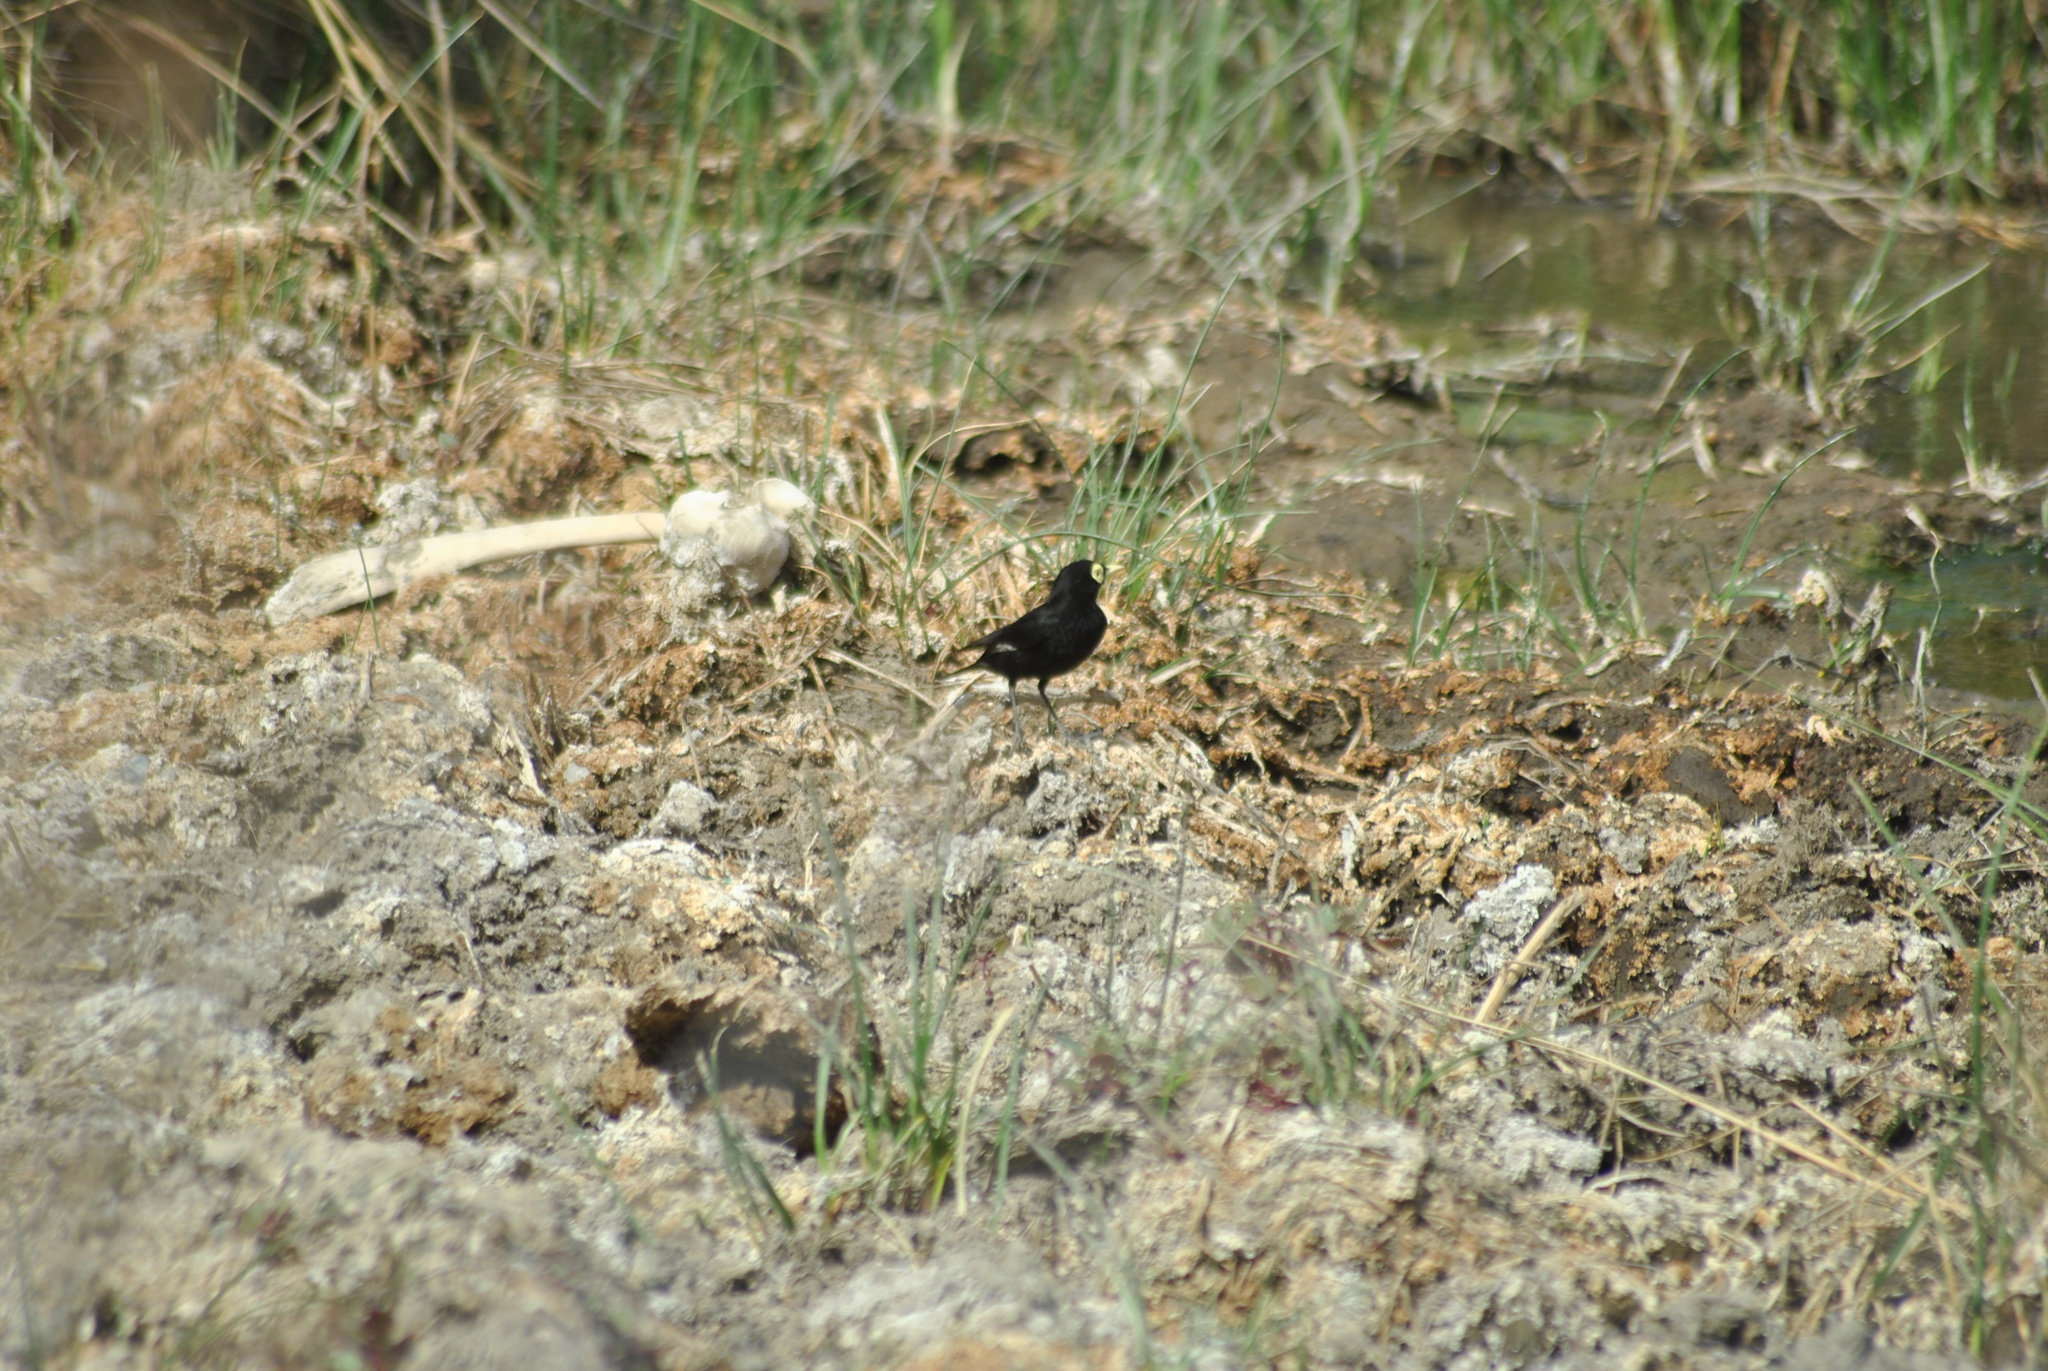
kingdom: Animalia
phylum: Chordata
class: Aves
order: Passeriformes
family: Tyrannidae
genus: Hymenops
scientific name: Hymenops perspicillatus
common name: Spectacled tyrant
